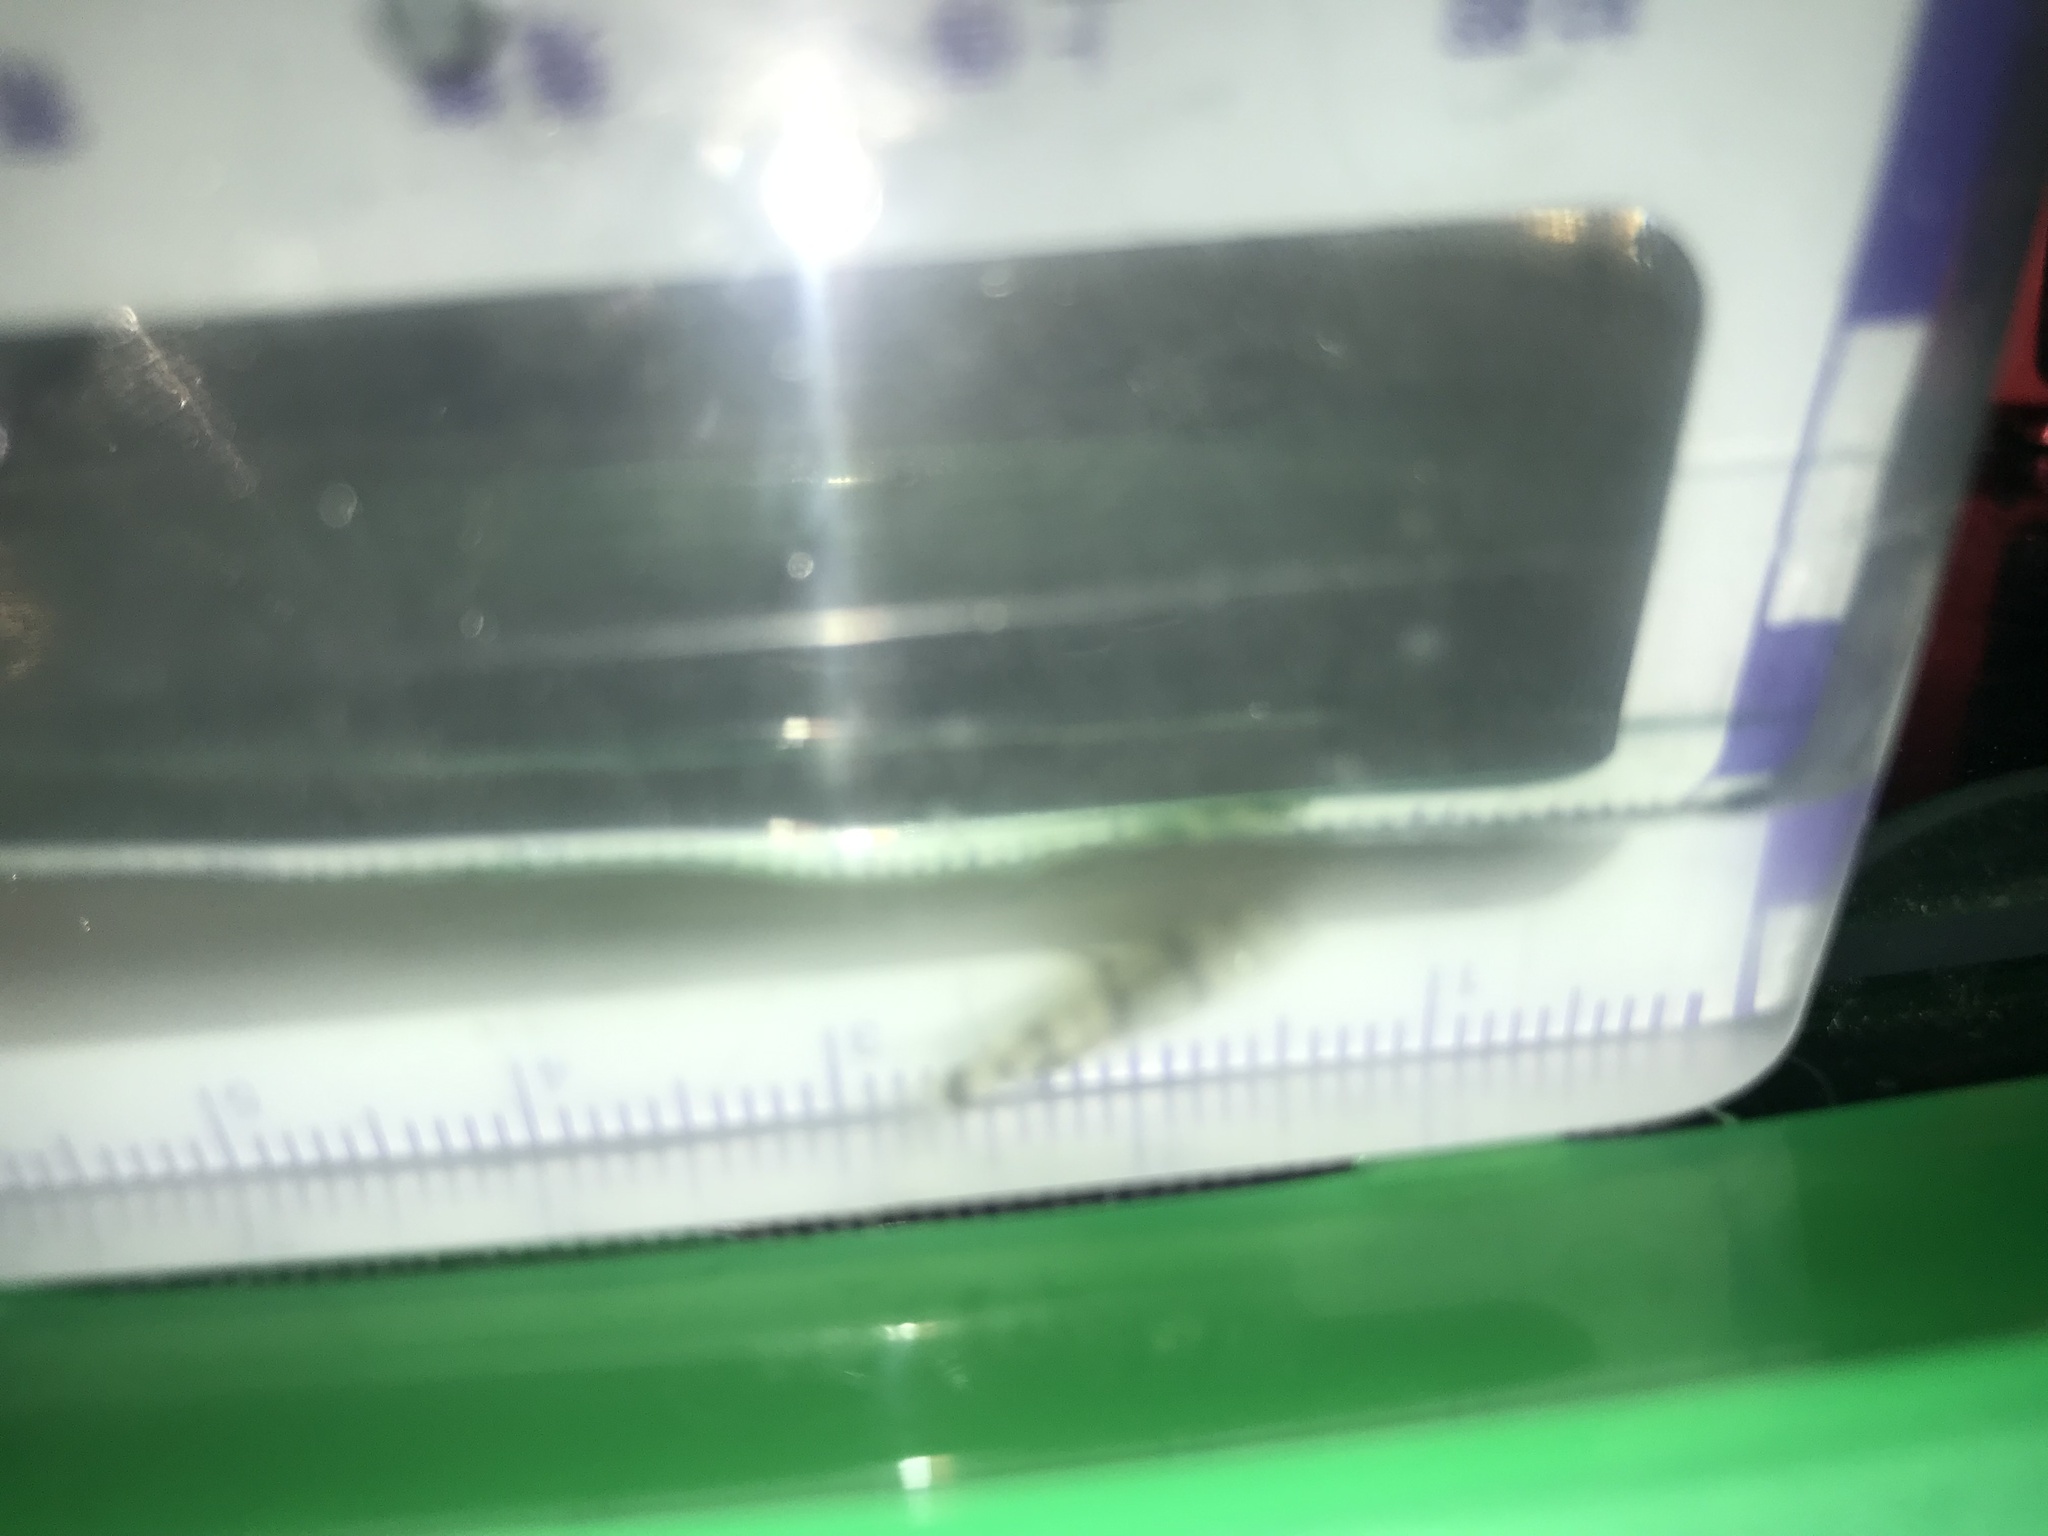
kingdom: Animalia
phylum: Chordata
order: Cypriniformes
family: Cyprinidae
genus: Acrossocheilus
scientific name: Acrossocheilus paradoxus
